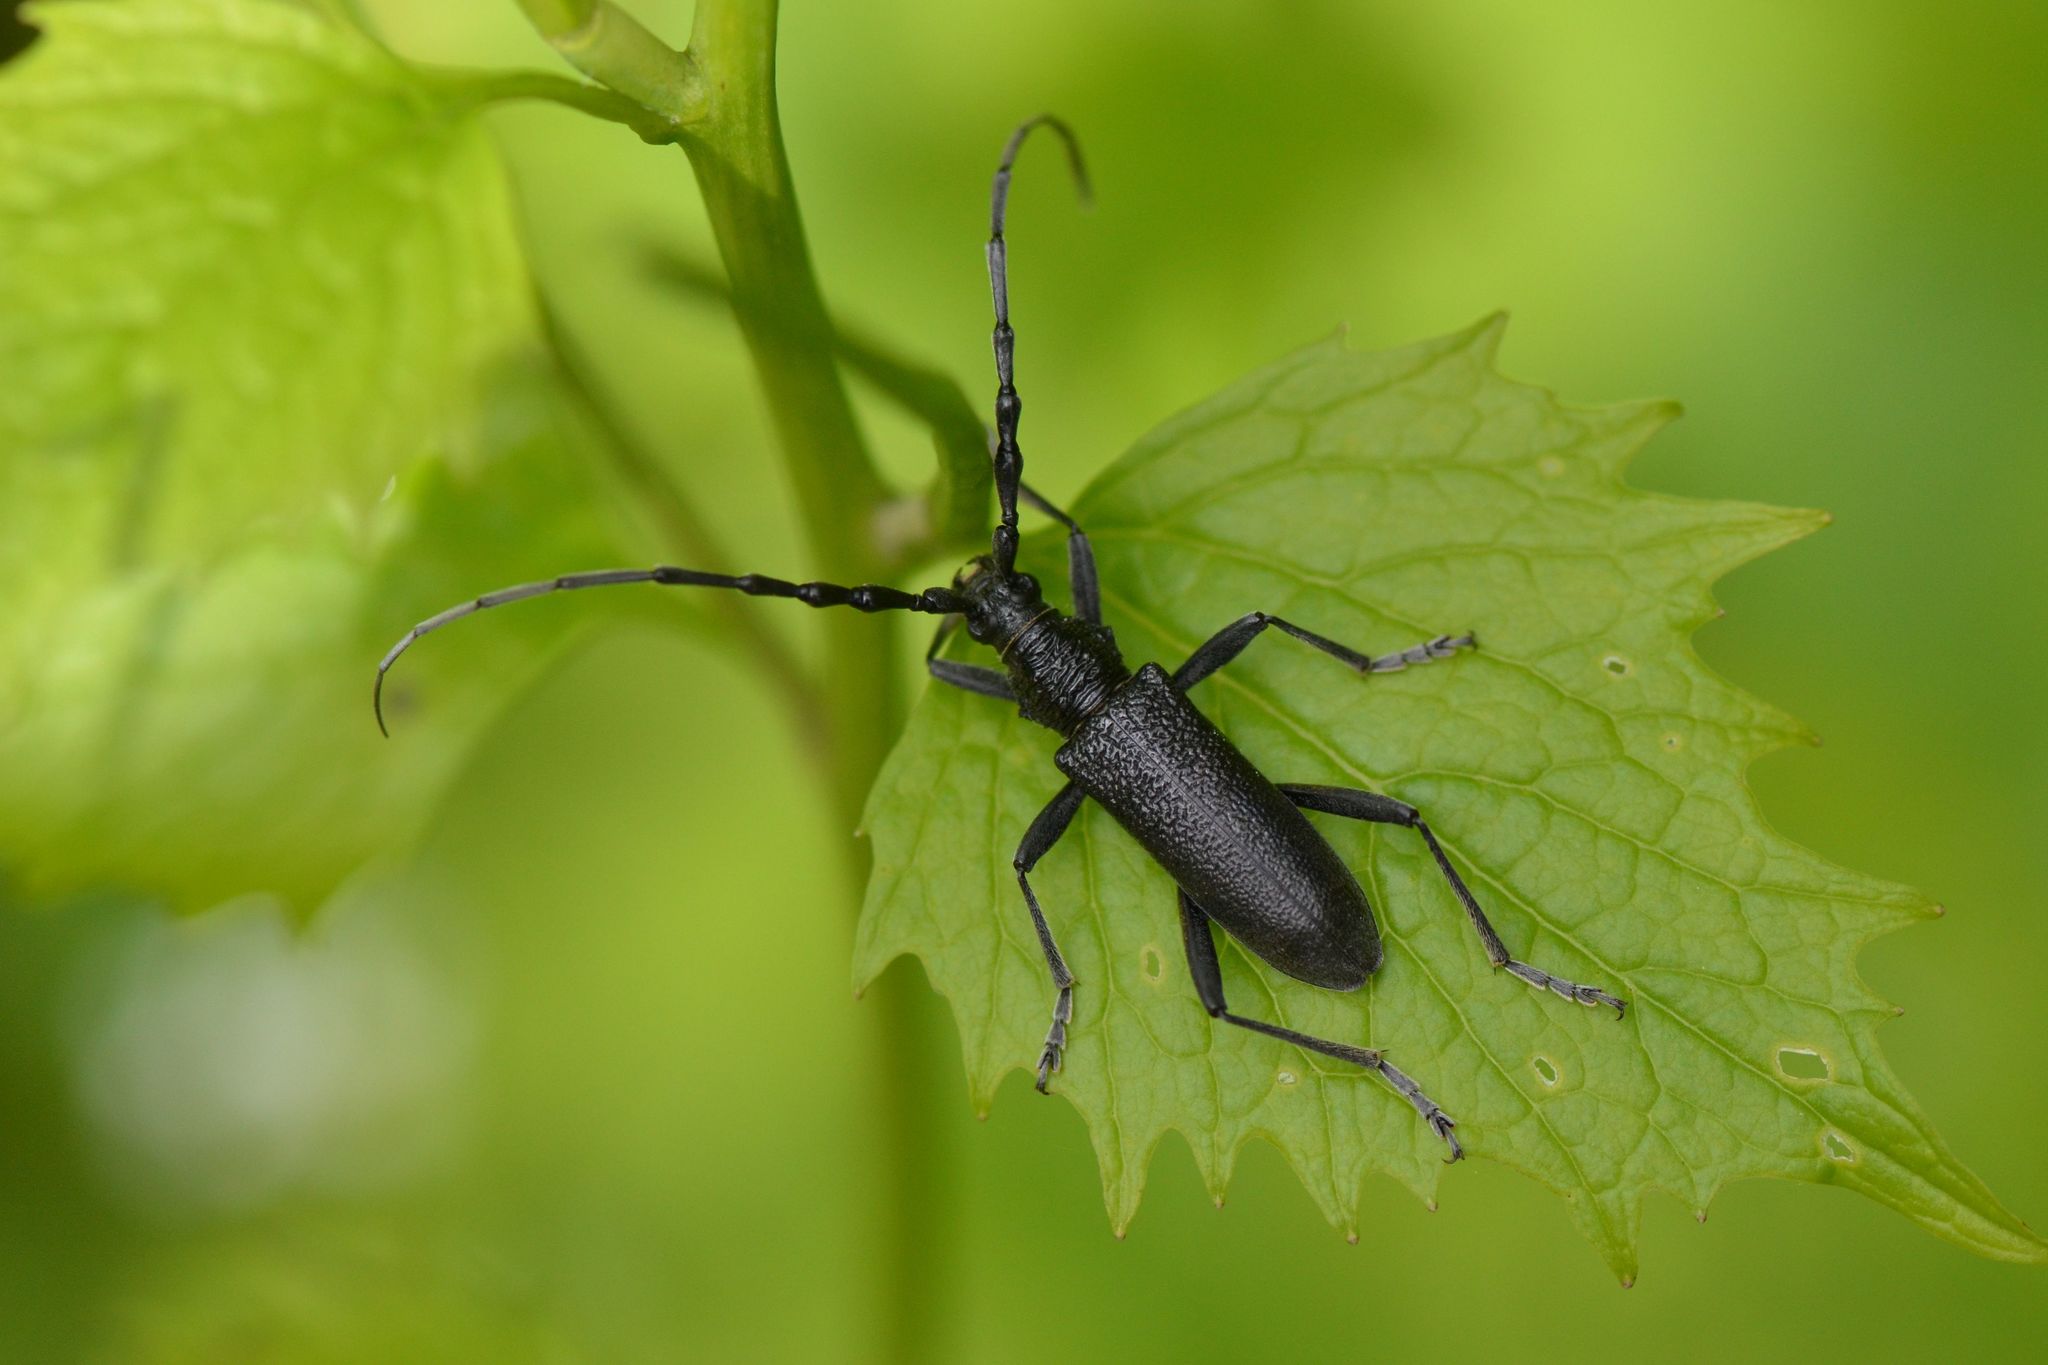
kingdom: Animalia
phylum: Arthropoda
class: Insecta
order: Coleoptera
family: Cerambycidae
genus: Cerambyx
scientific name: Cerambyx scopolii
